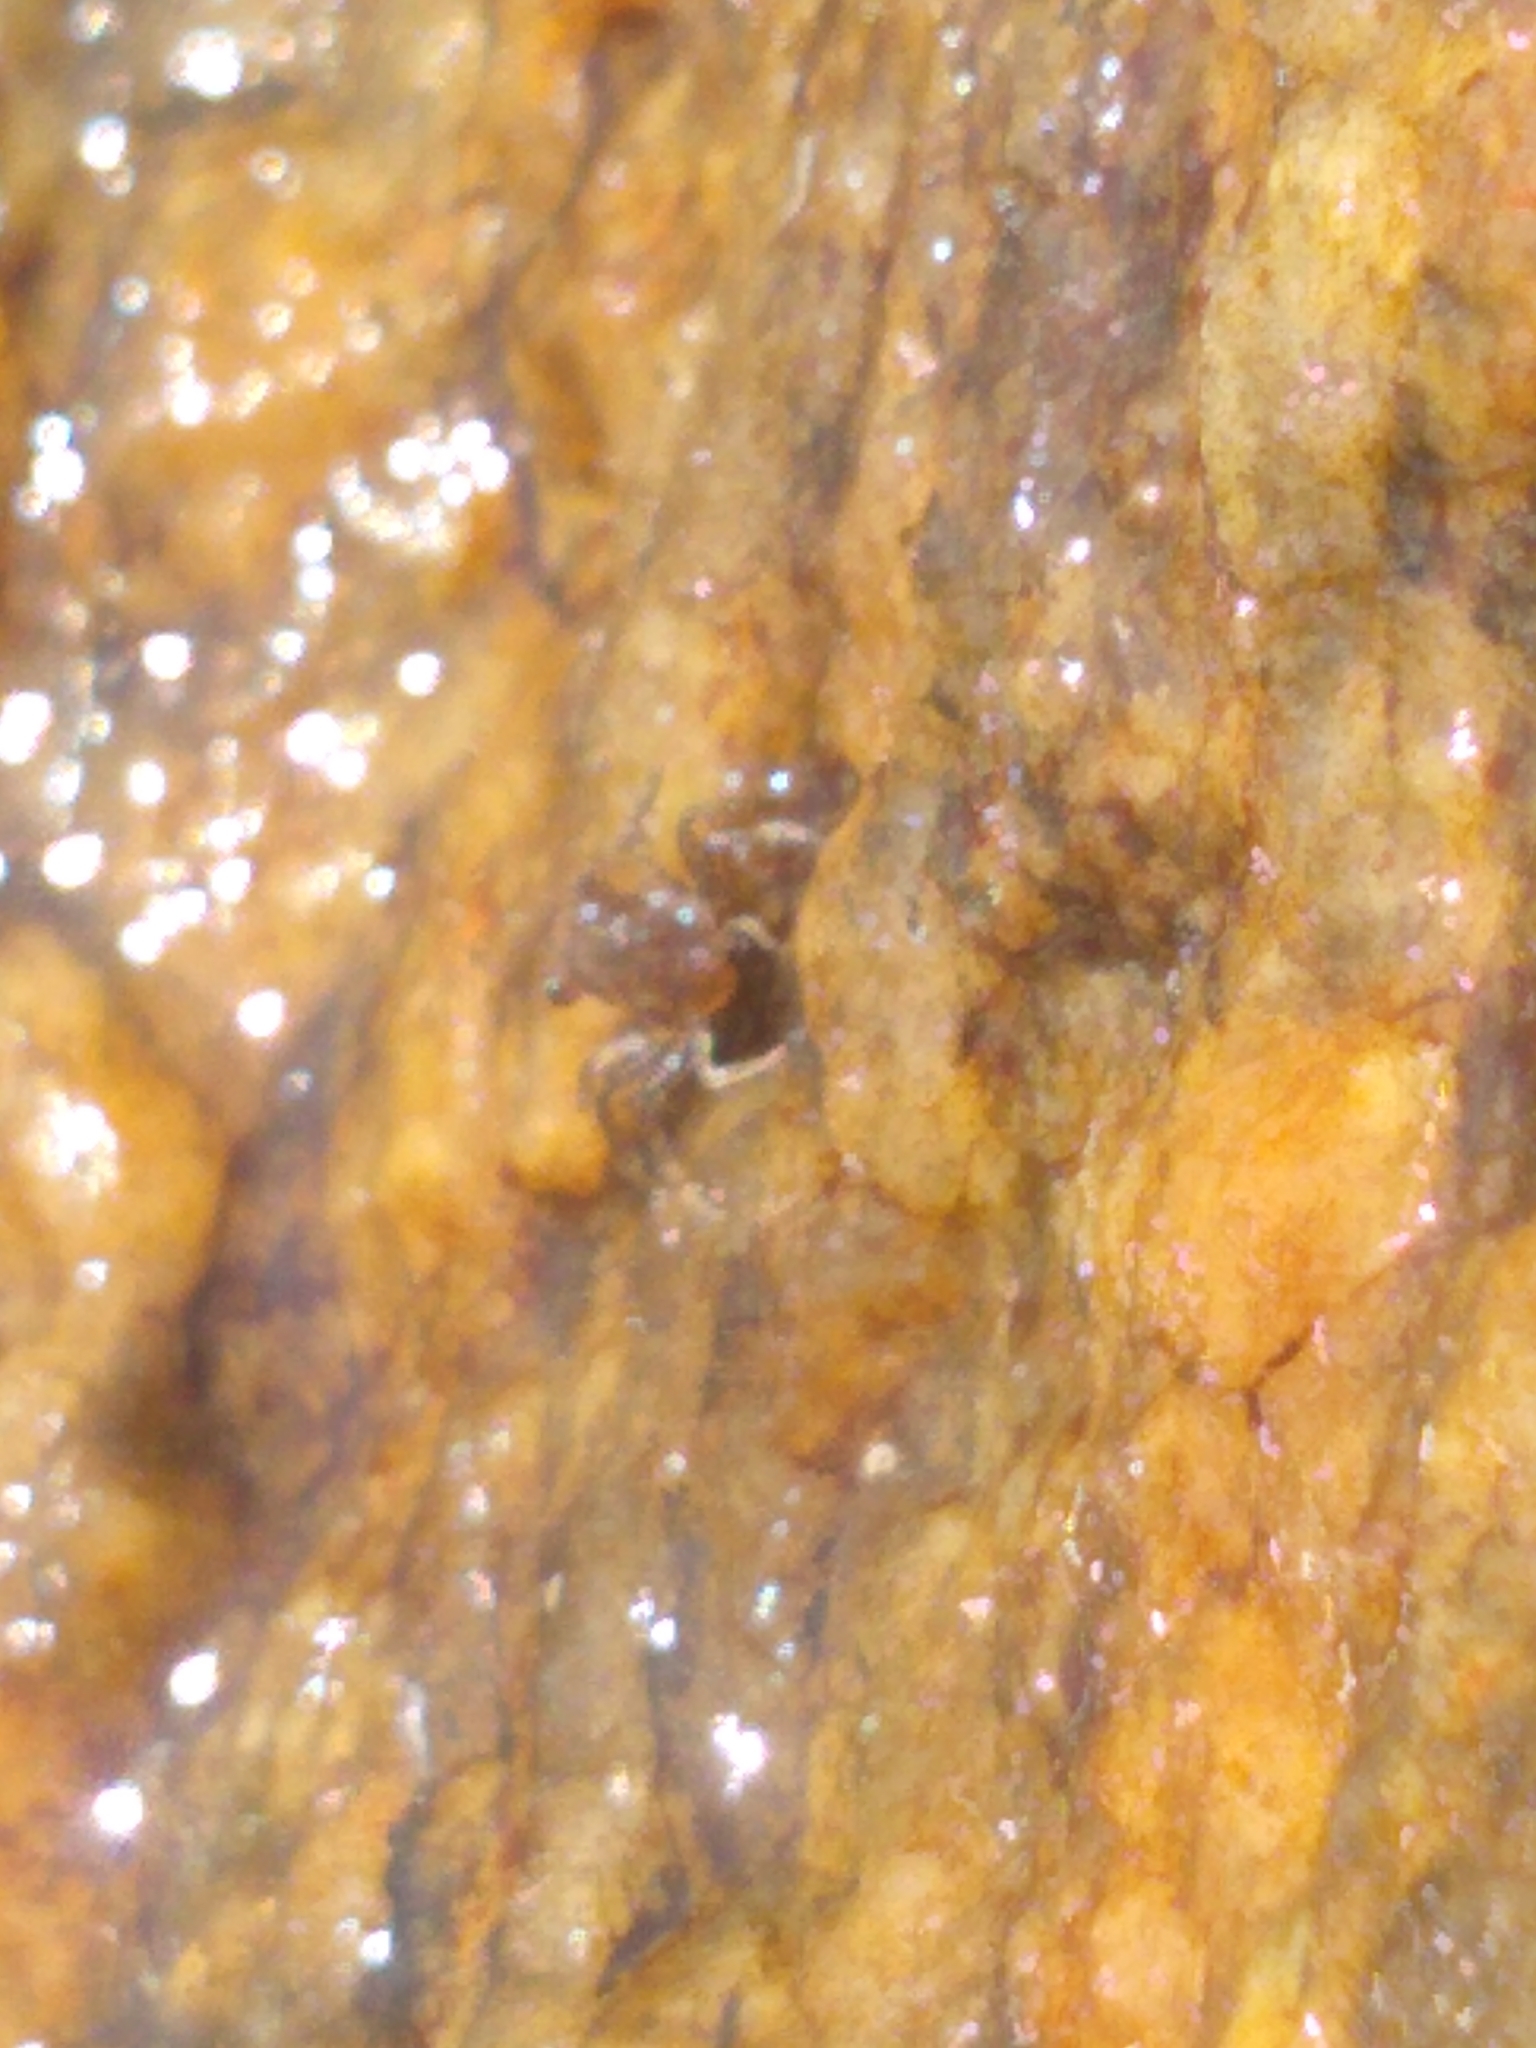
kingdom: Animalia
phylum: Mollusca
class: Gastropoda
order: Littorinimorpha
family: Littorinidae
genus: Littorina
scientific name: Littorina littorea
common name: Common periwinkle
